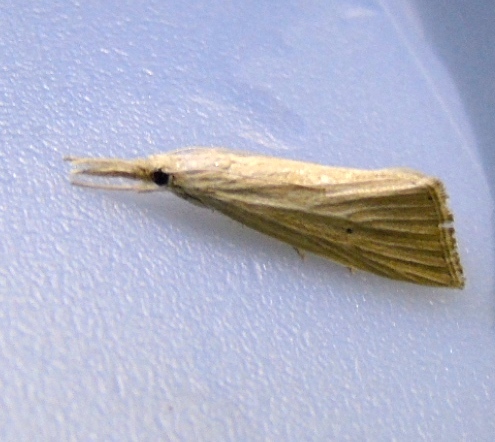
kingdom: Animalia
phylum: Arthropoda
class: Insecta
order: Lepidoptera
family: Crambidae
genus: Diatraea
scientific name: Diatraea evanescens
